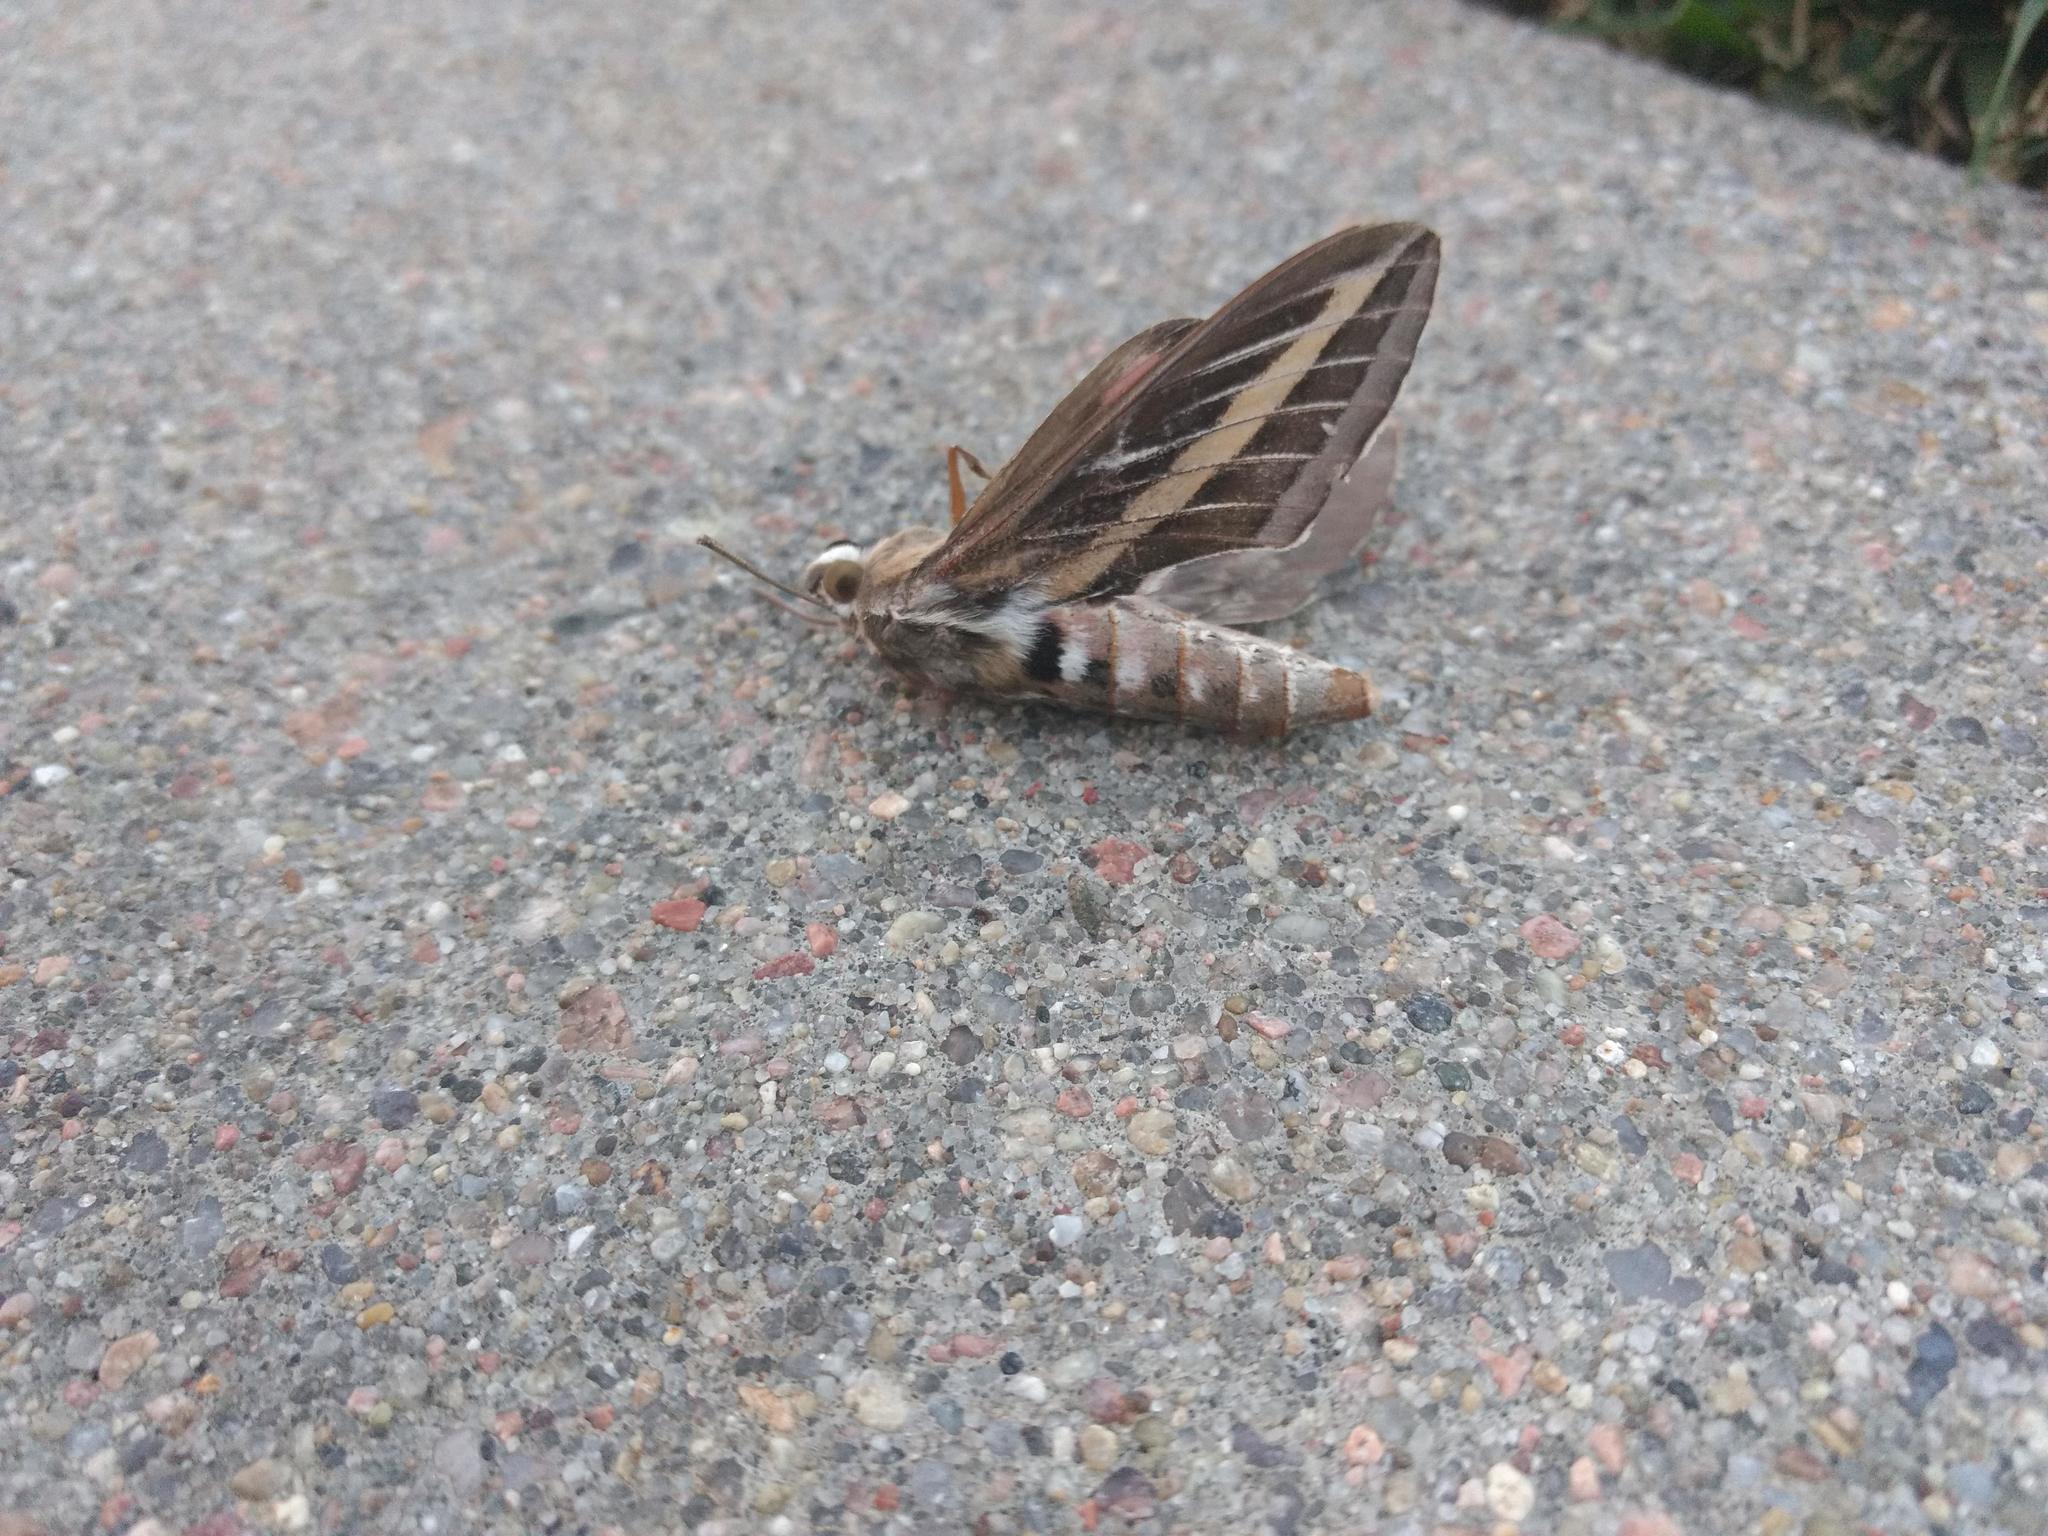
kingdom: Animalia
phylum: Arthropoda
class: Insecta
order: Lepidoptera
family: Sphingidae
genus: Hyles
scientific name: Hyles lineata
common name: White-lined sphinx
